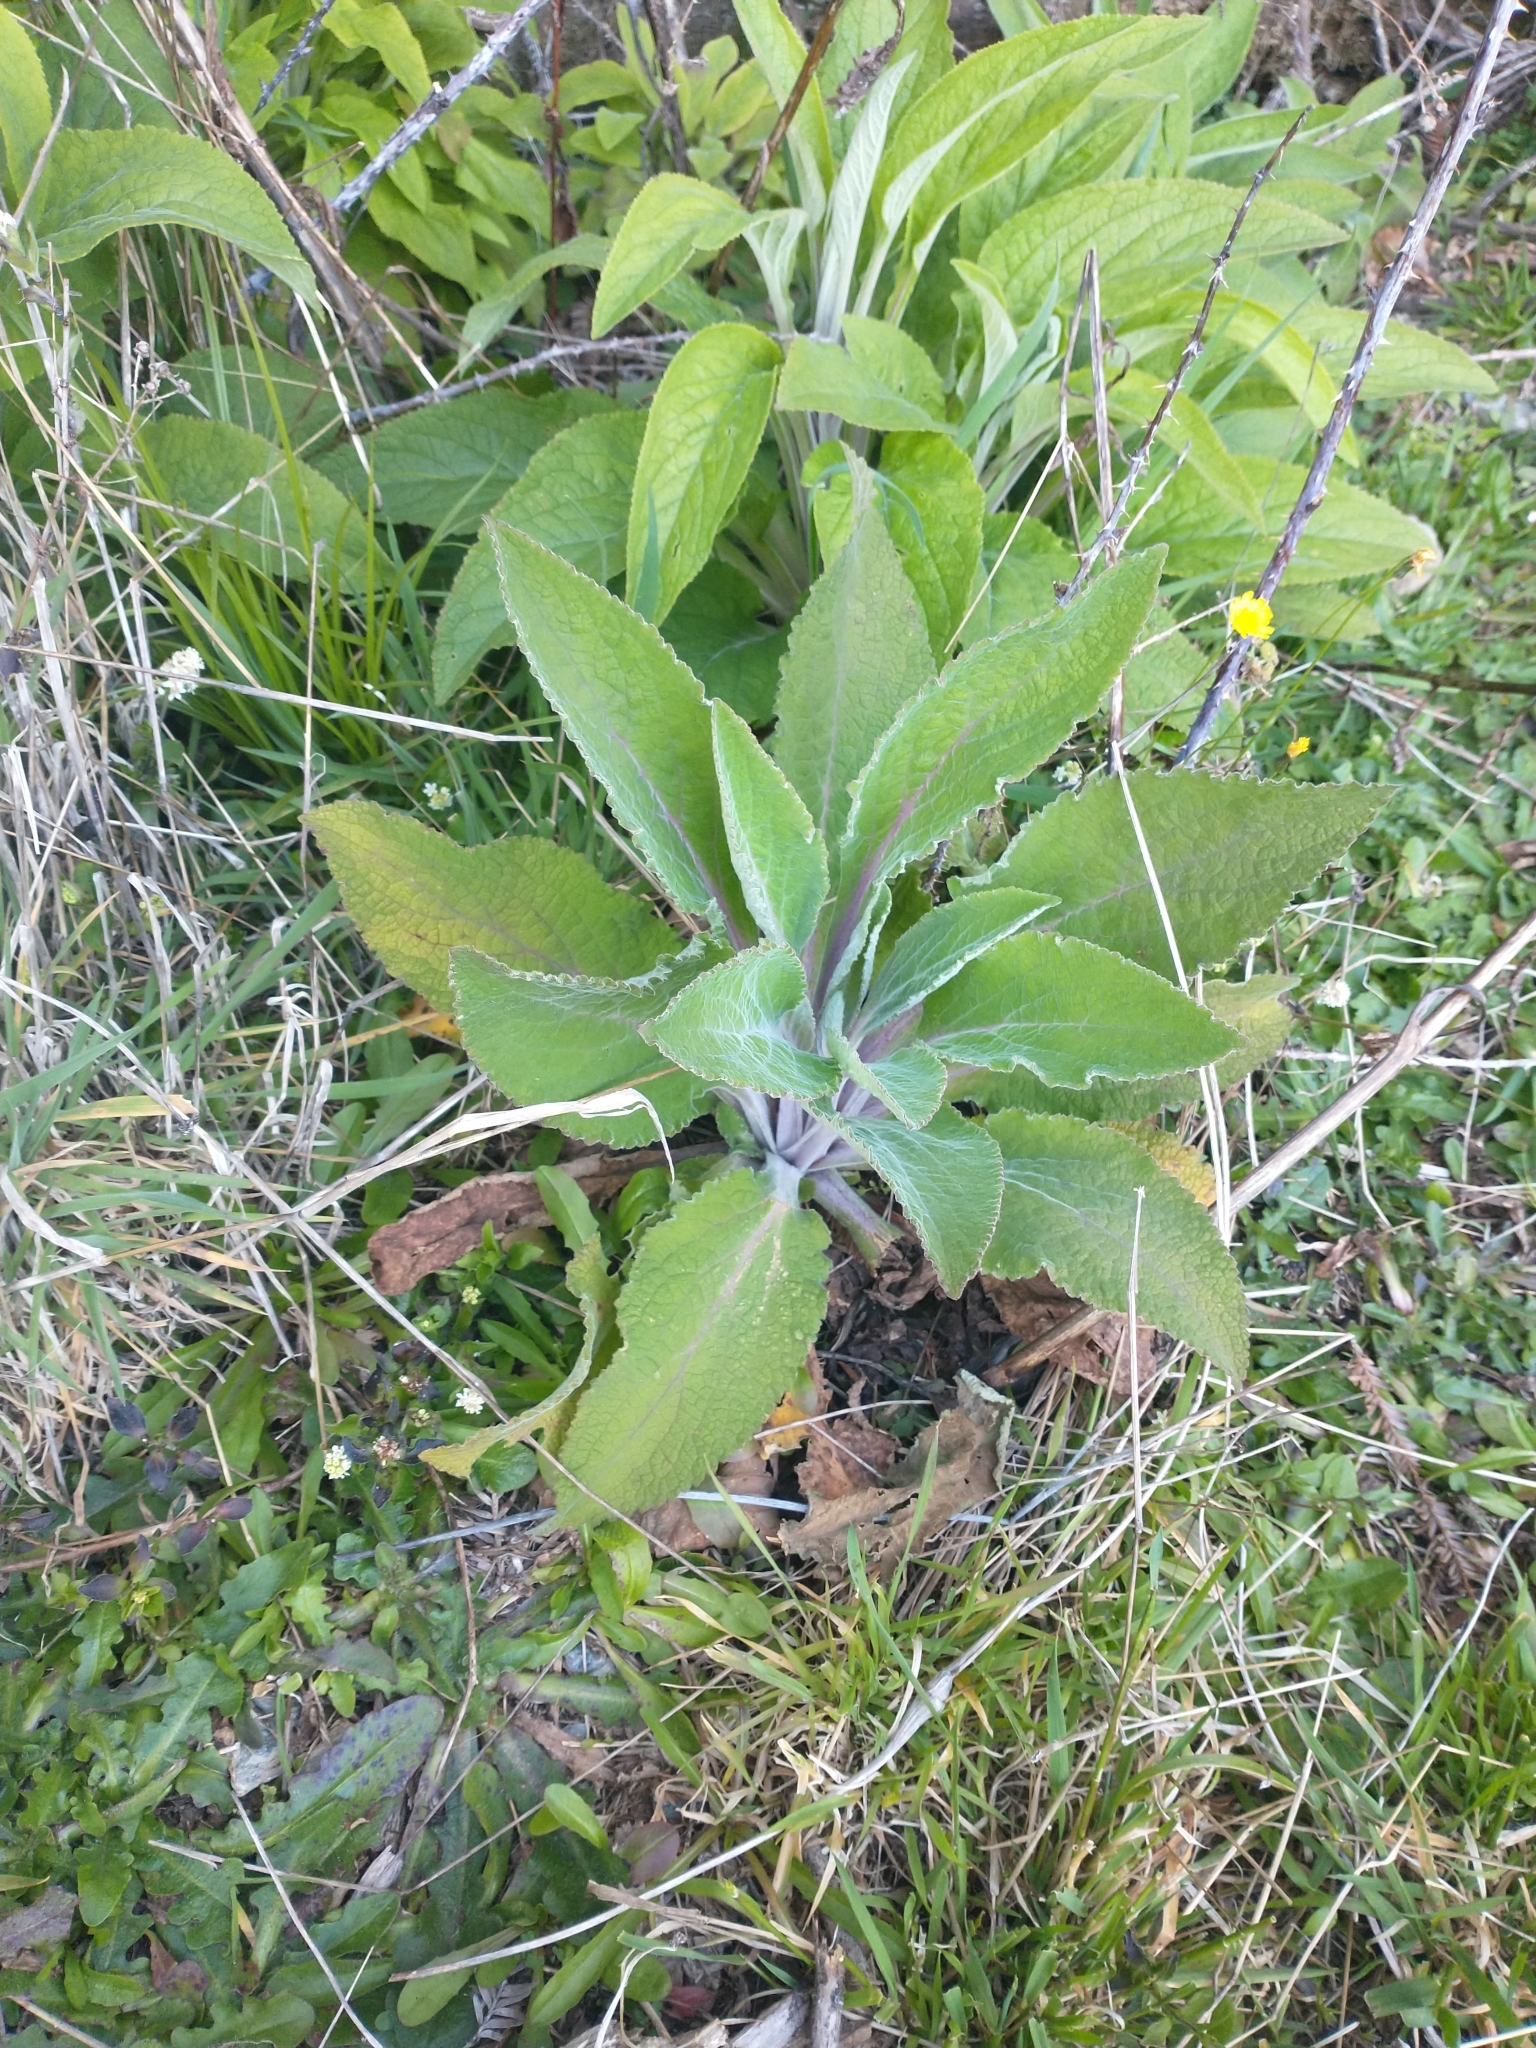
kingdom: Plantae
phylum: Tracheophyta
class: Magnoliopsida
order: Lamiales
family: Plantaginaceae
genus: Digitalis
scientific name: Digitalis purpurea
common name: Foxglove
